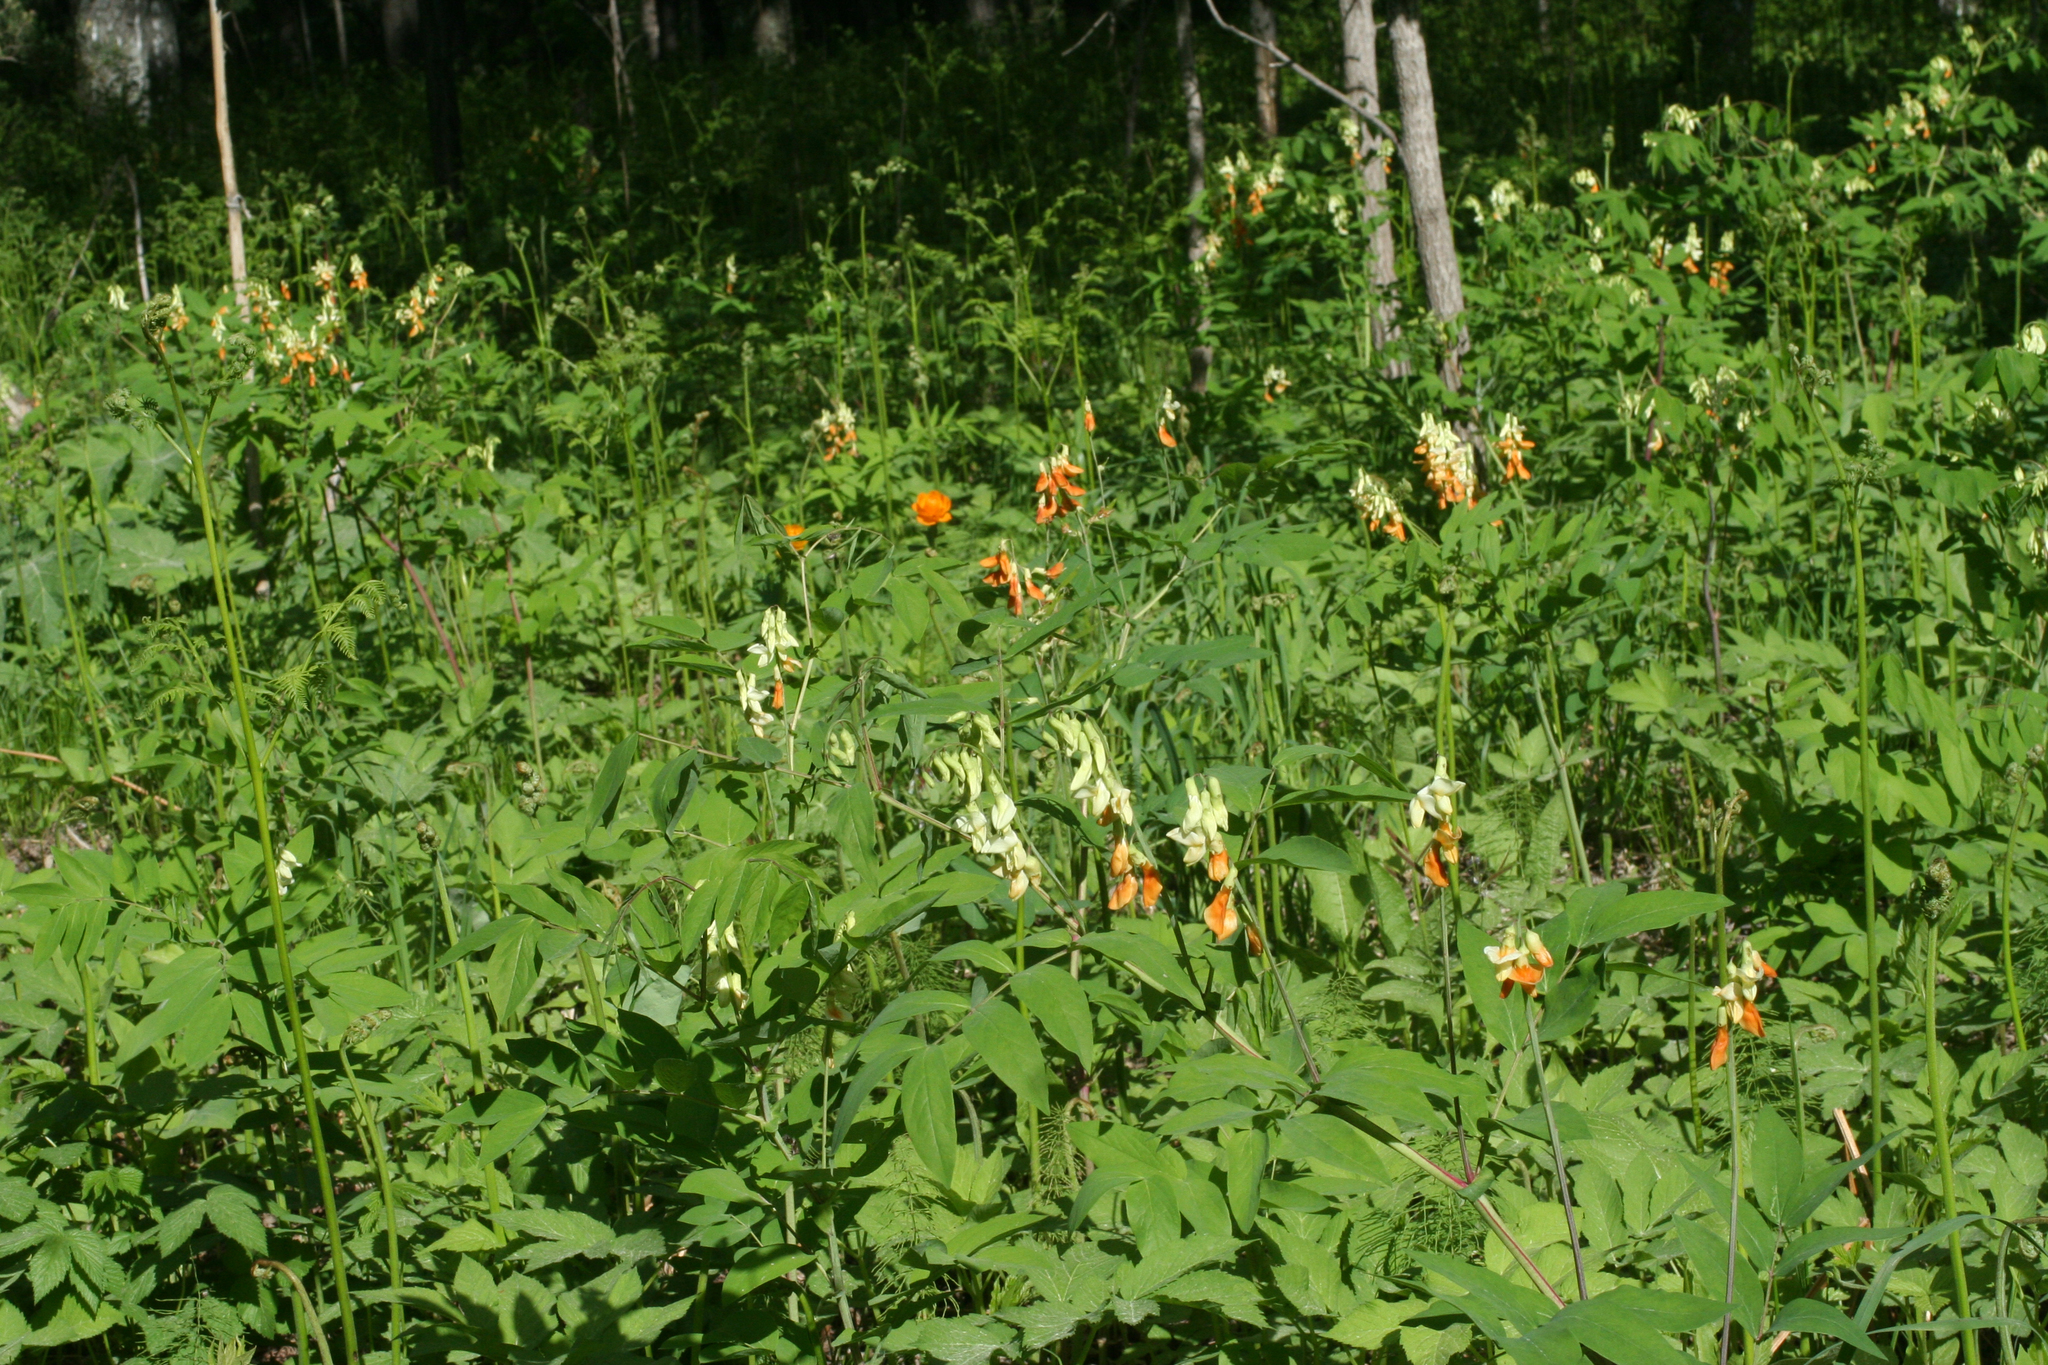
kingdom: Plantae
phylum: Tracheophyta
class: Magnoliopsida
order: Fabales
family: Fabaceae
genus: Lathyrus
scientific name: Lathyrus gmelinii
